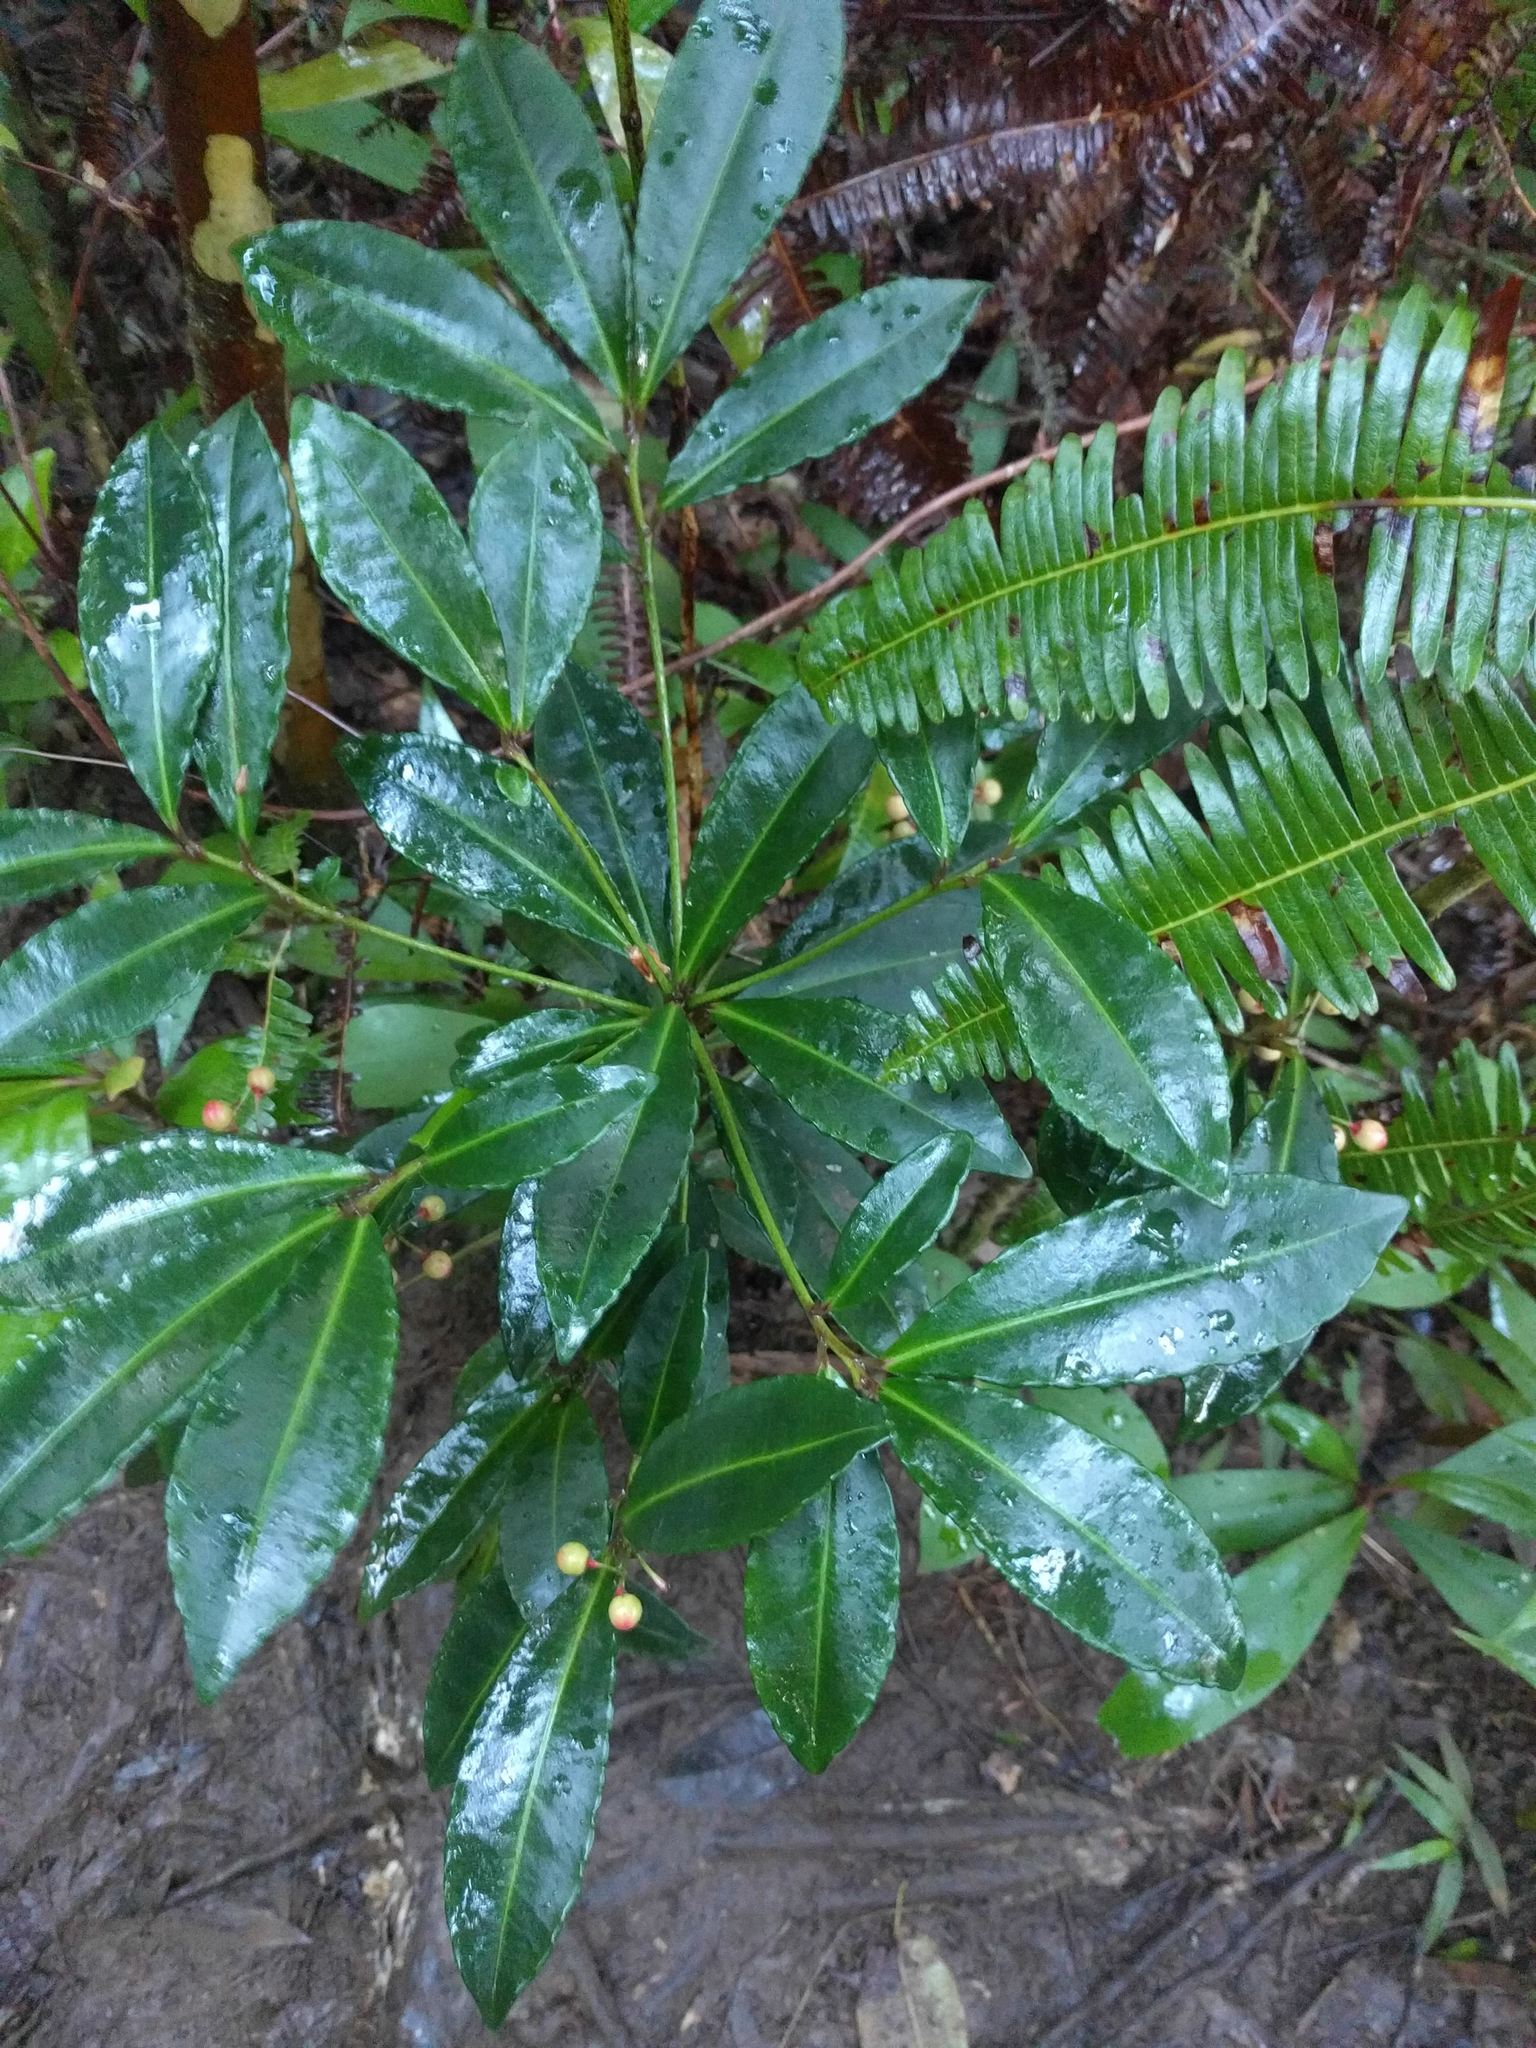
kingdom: Plantae
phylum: Tracheophyta
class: Magnoliopsida
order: Ericales
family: Primulaceae
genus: Ardisia
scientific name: Ardisia crenata
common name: Hen's eyes
